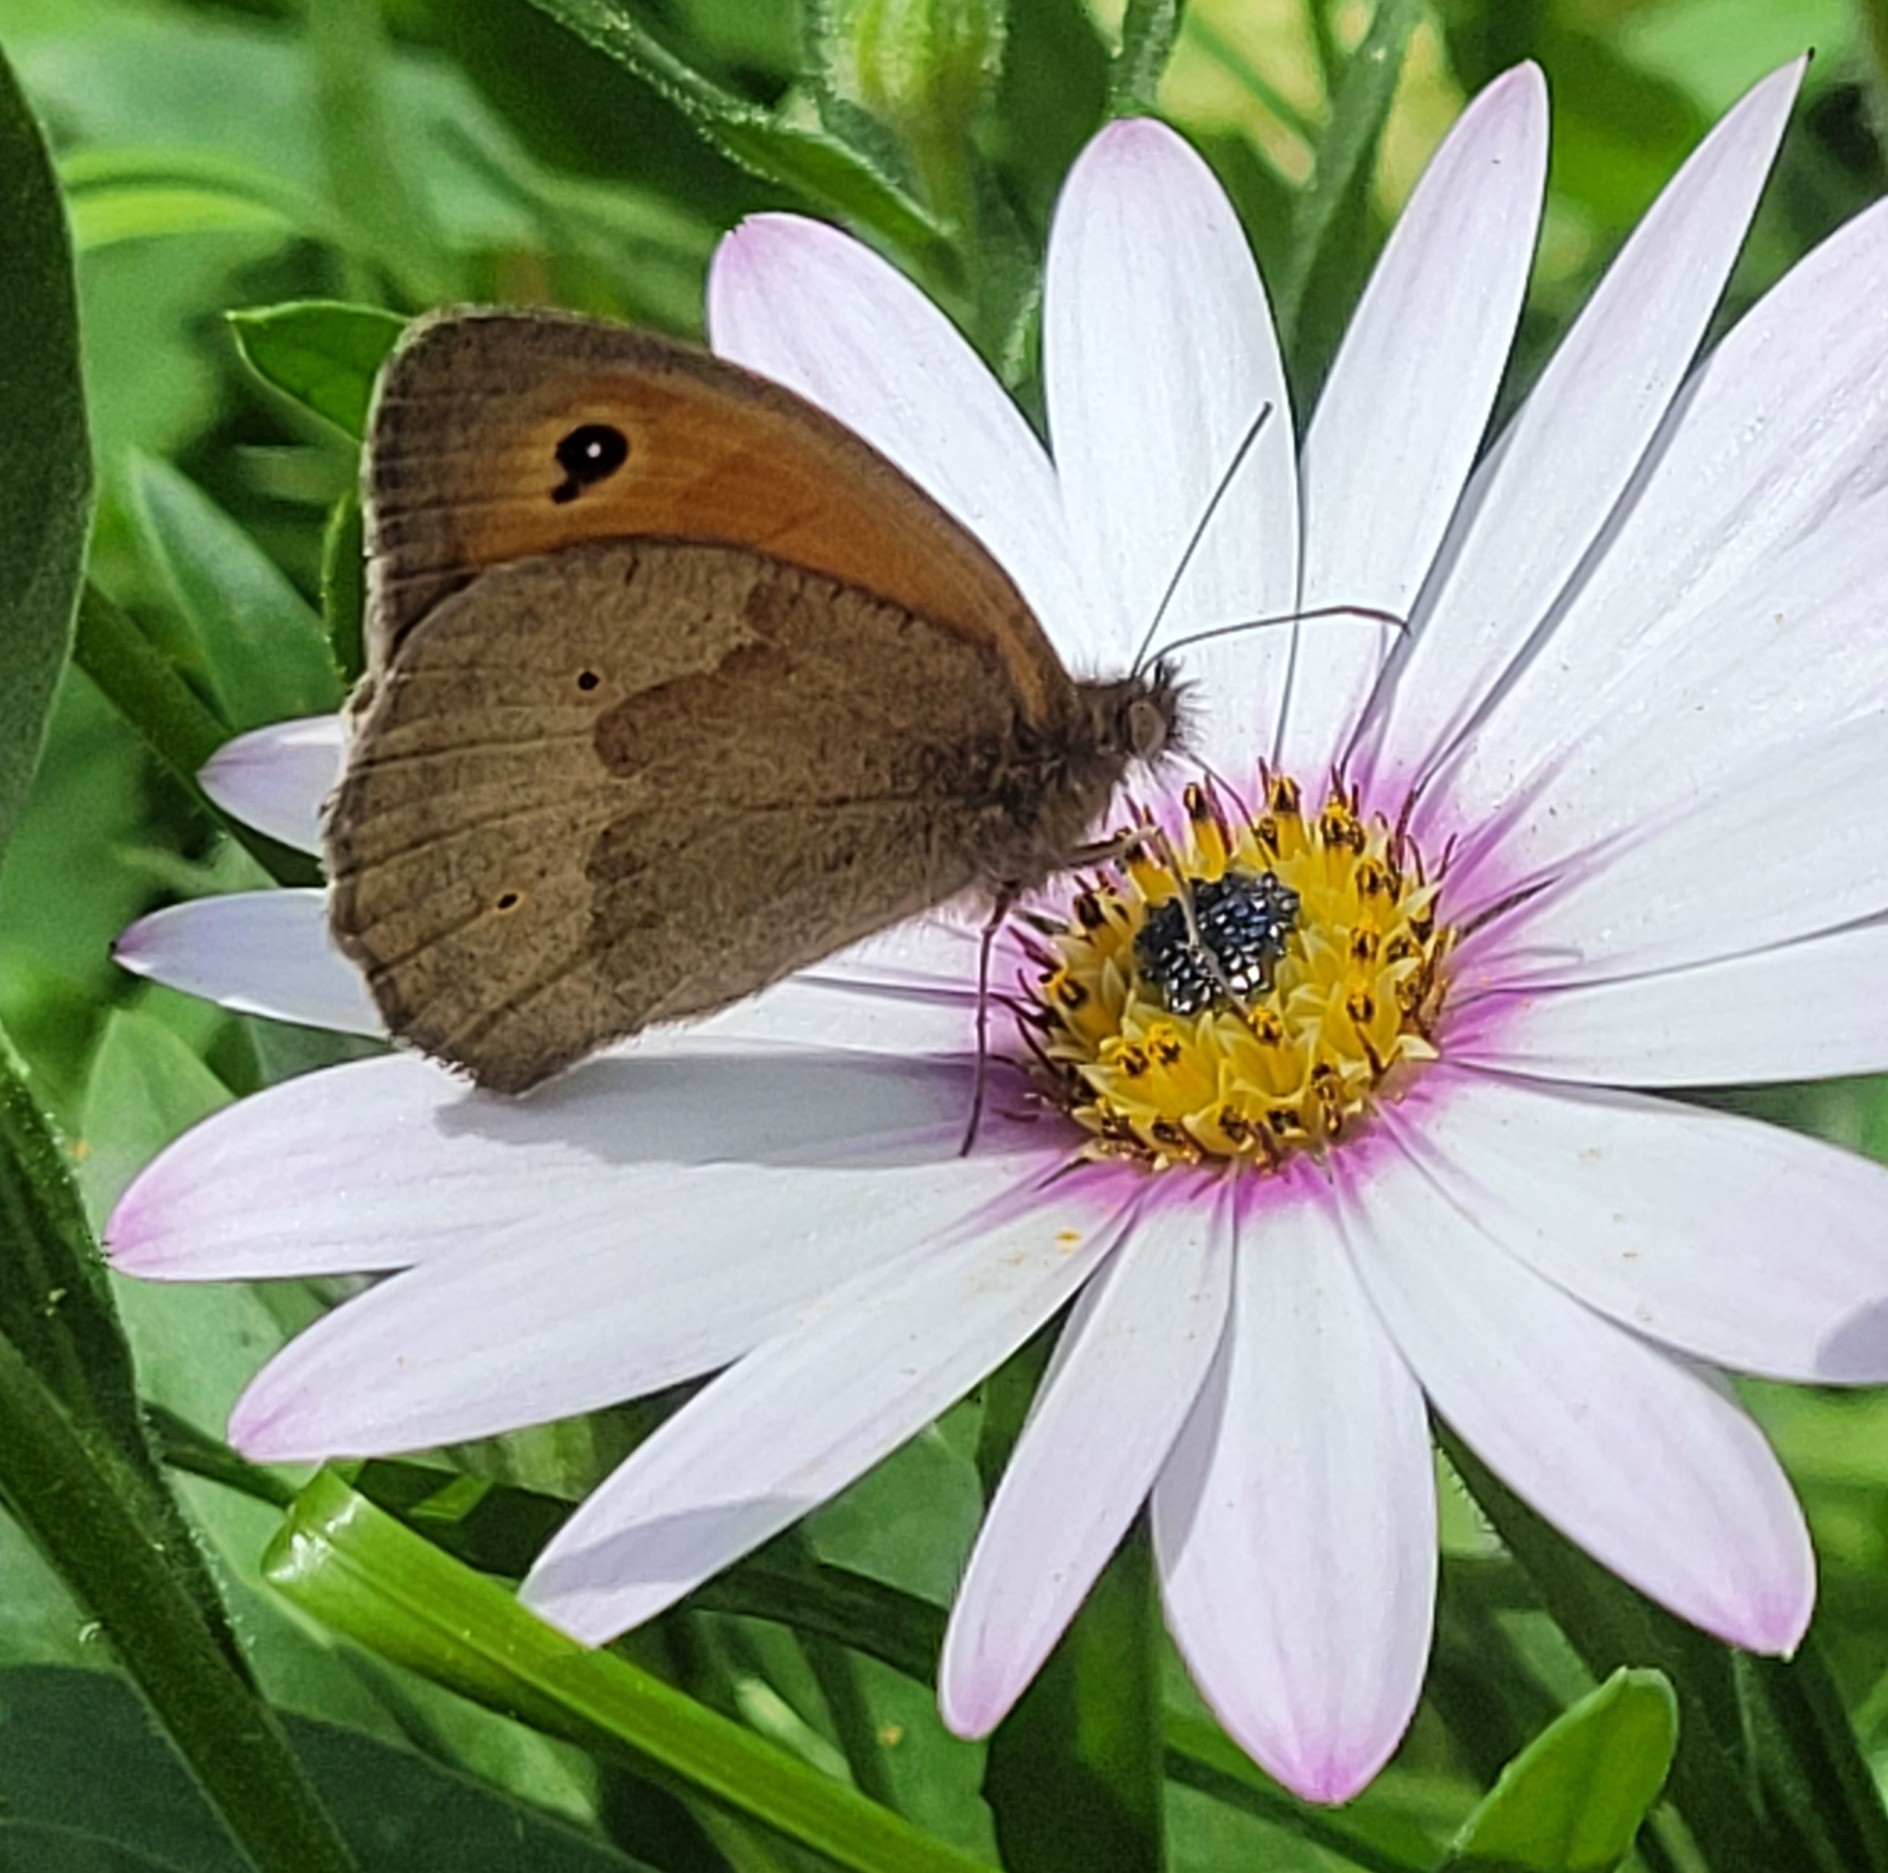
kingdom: Animalia
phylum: Arthropoda
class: Insecta
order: Lepidoptera
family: Nymphalidae
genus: Maniola
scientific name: Maniola jurtina
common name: Meadow brown
